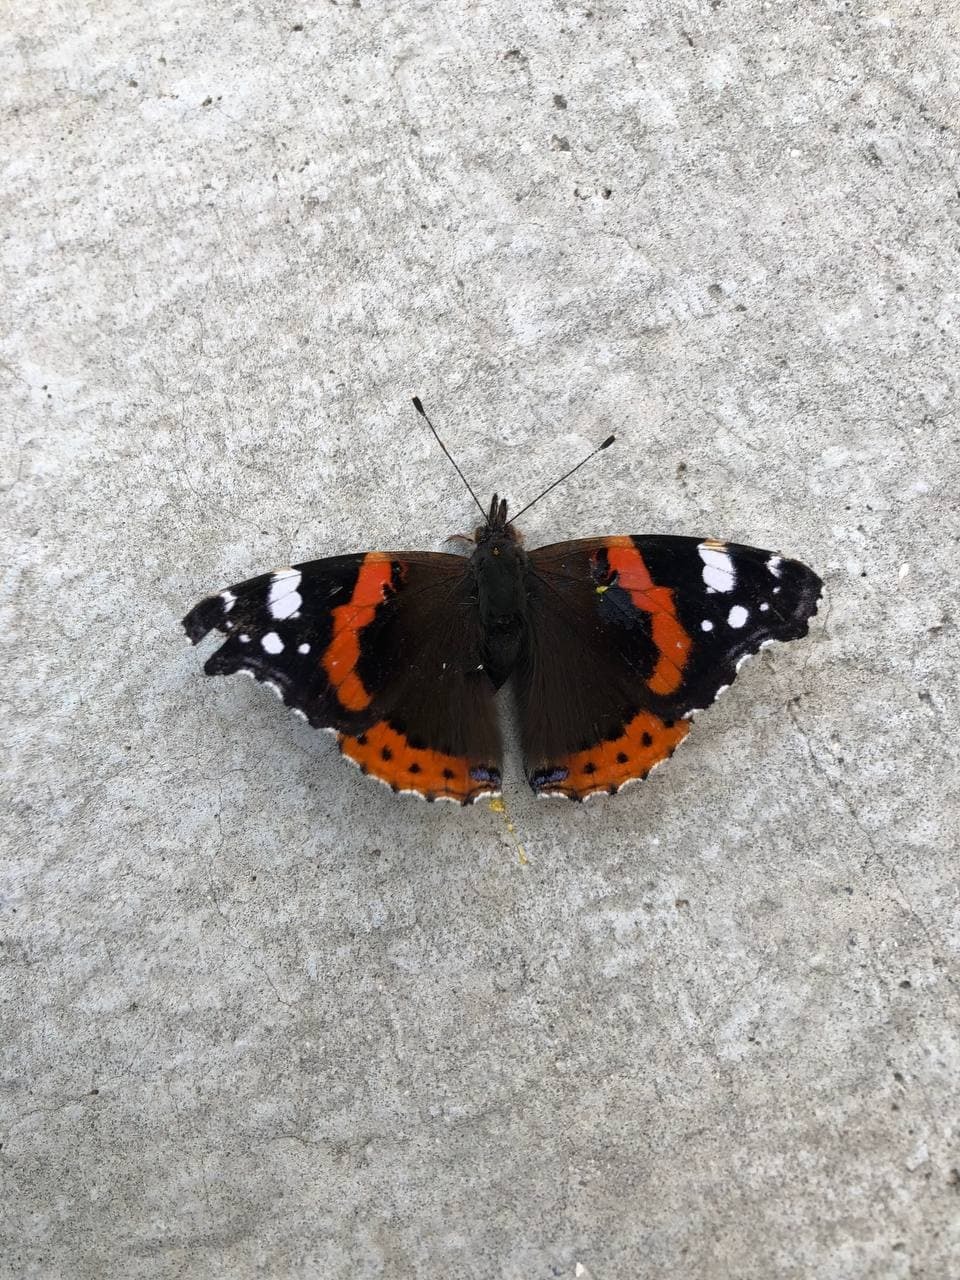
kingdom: Animalia
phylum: Arthropoda
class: Insecta
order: Lepidoptera
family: Nymphalidae
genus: Vanessa
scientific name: Vanessa atalanta
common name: Red admiral
